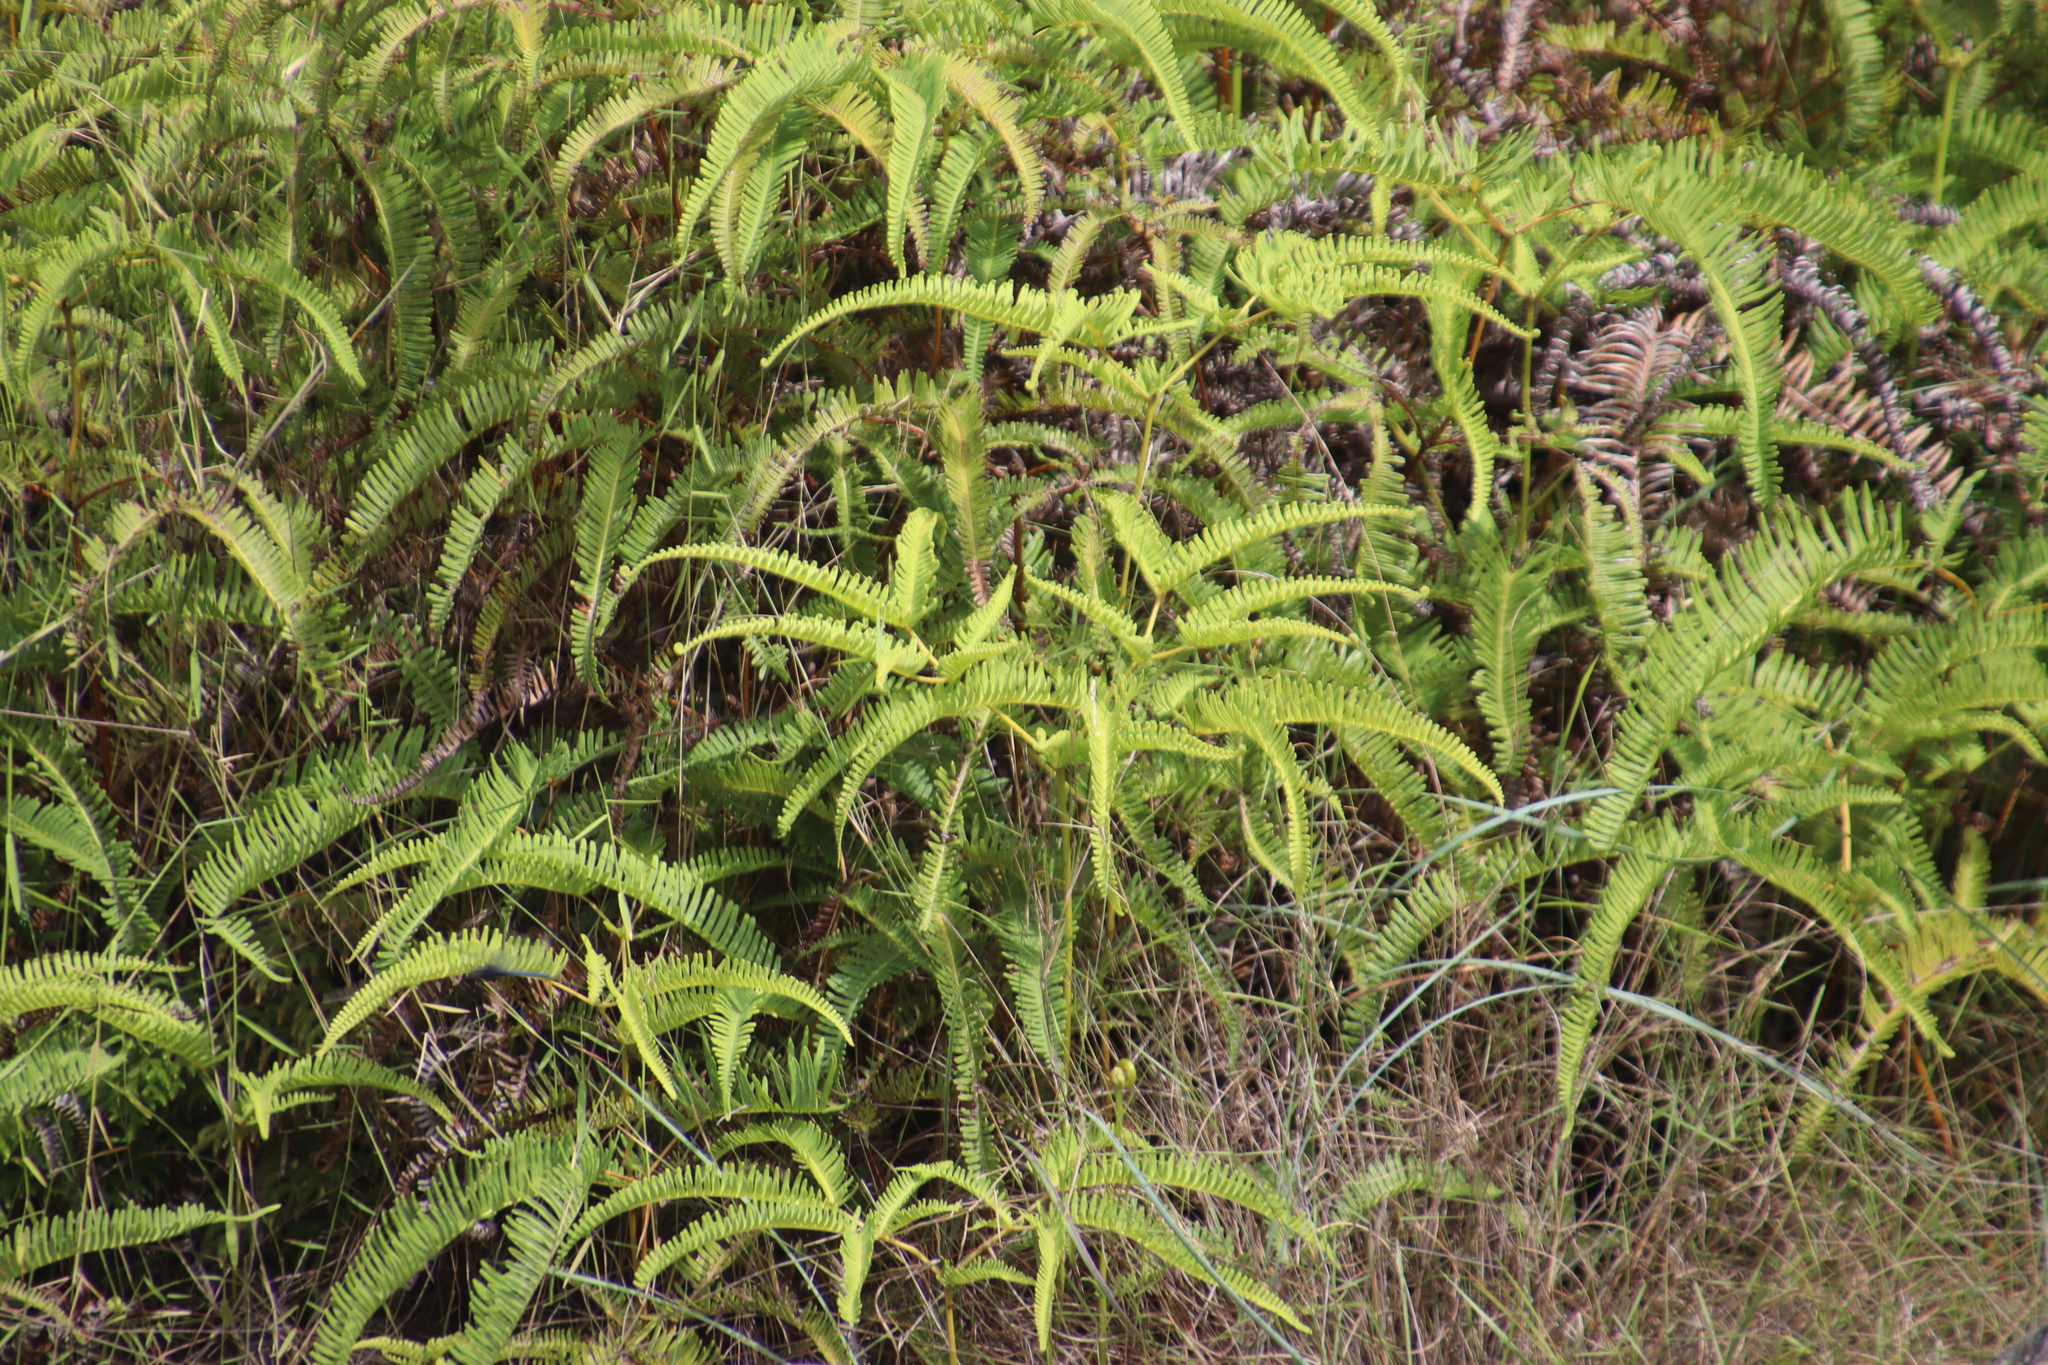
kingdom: Plantae
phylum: Tracheophyta
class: Polypodiopsida
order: Gleicheniales
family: Gleicheniaceae
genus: Dicranopteris
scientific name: Dicranopteris linearis
